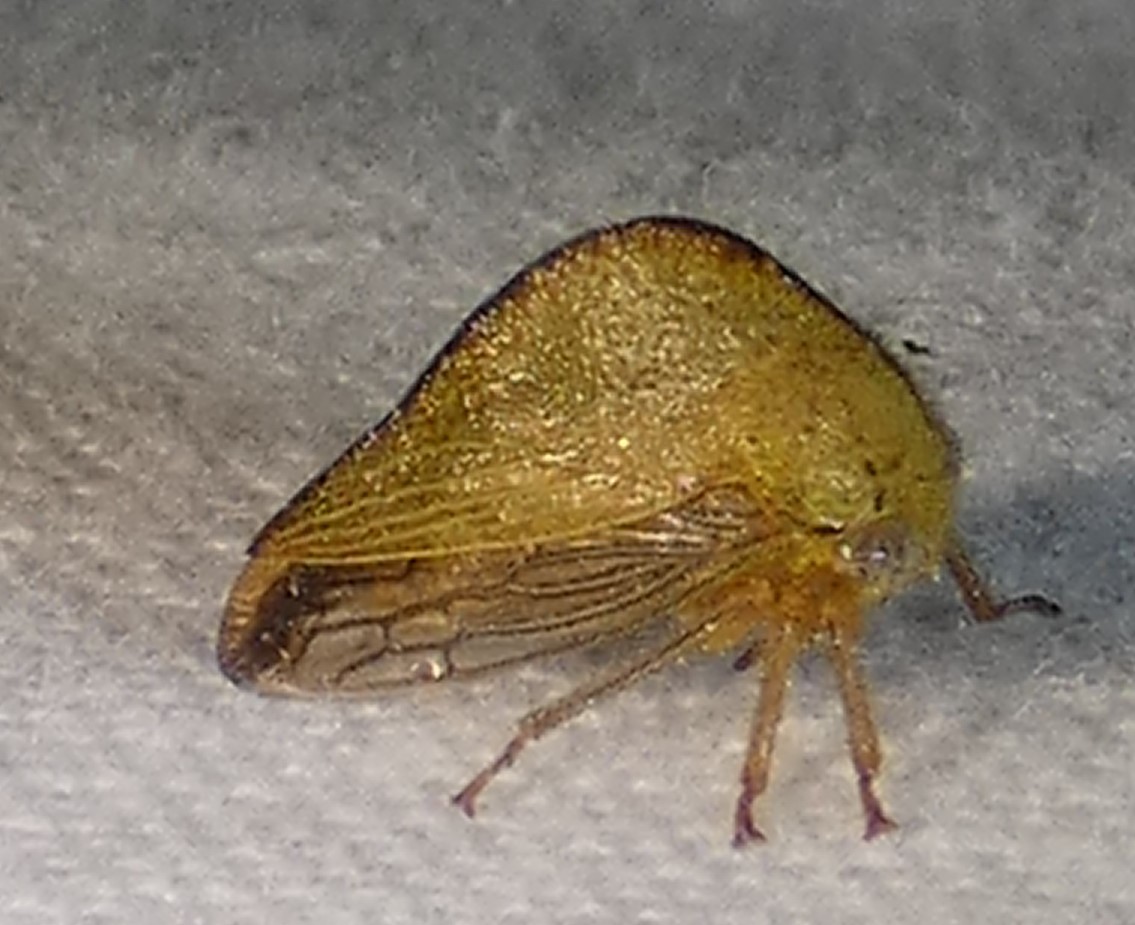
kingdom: Animalia
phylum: Arthropoda
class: Insecta
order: Hemiptera
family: Membracidae
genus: Archasia
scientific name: Archasia pallida
